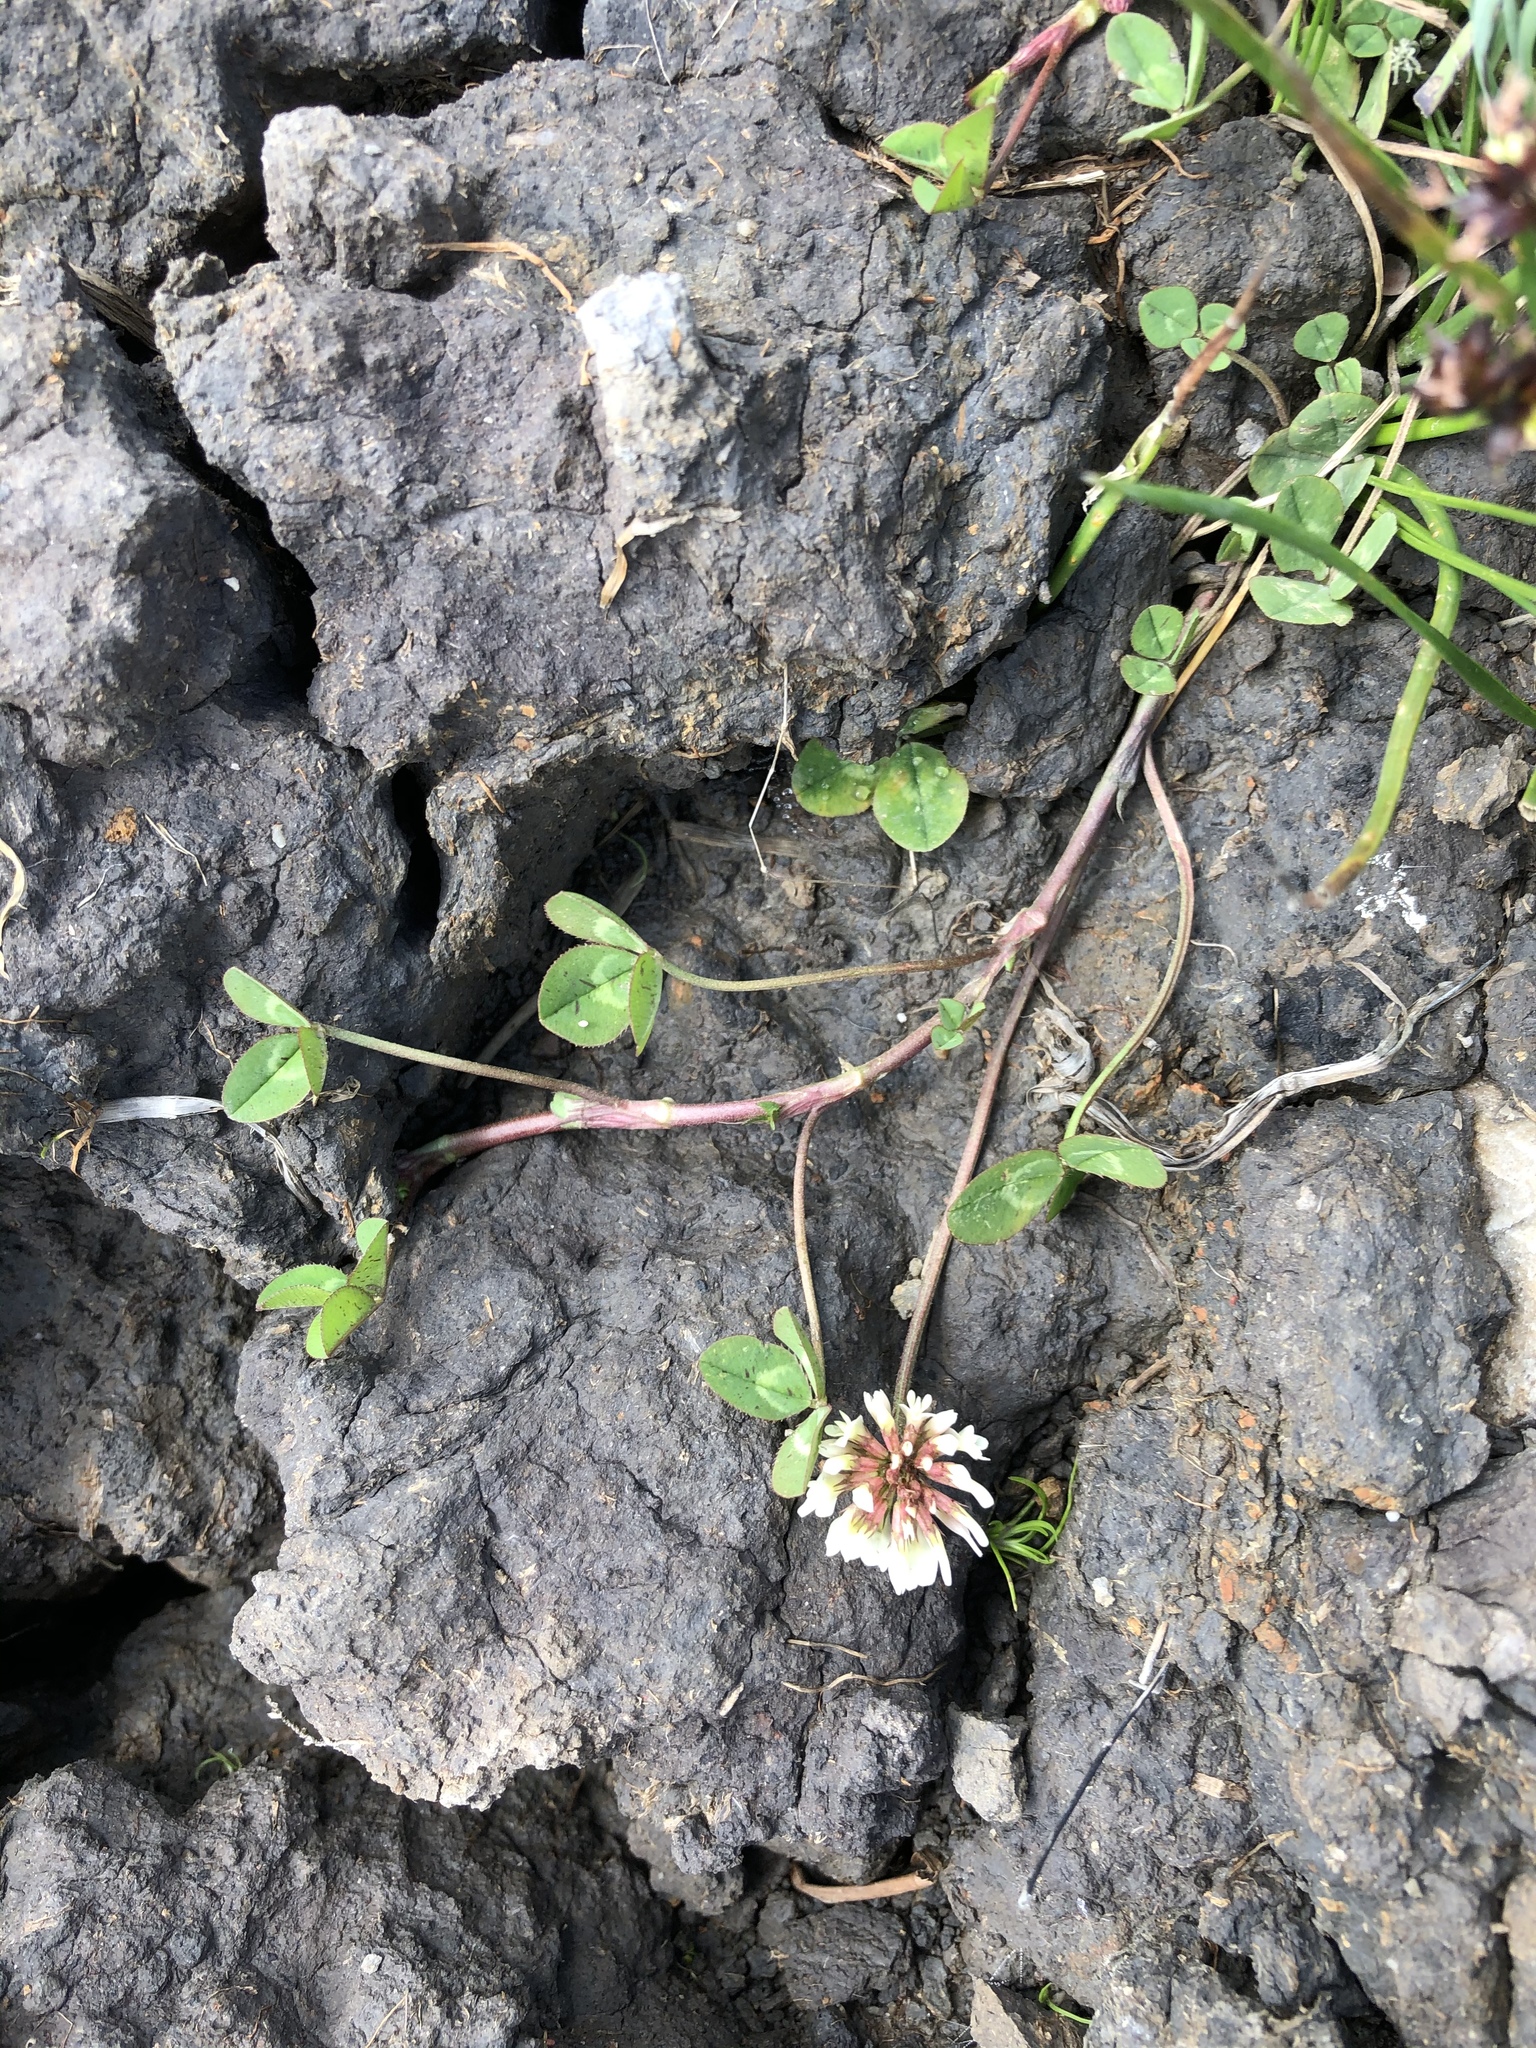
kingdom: Plantae
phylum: Tracheophyta
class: Magnoliopsida
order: Fabales
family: Fabaceae
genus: Trifolium
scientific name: Trifolium repens
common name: White clover
